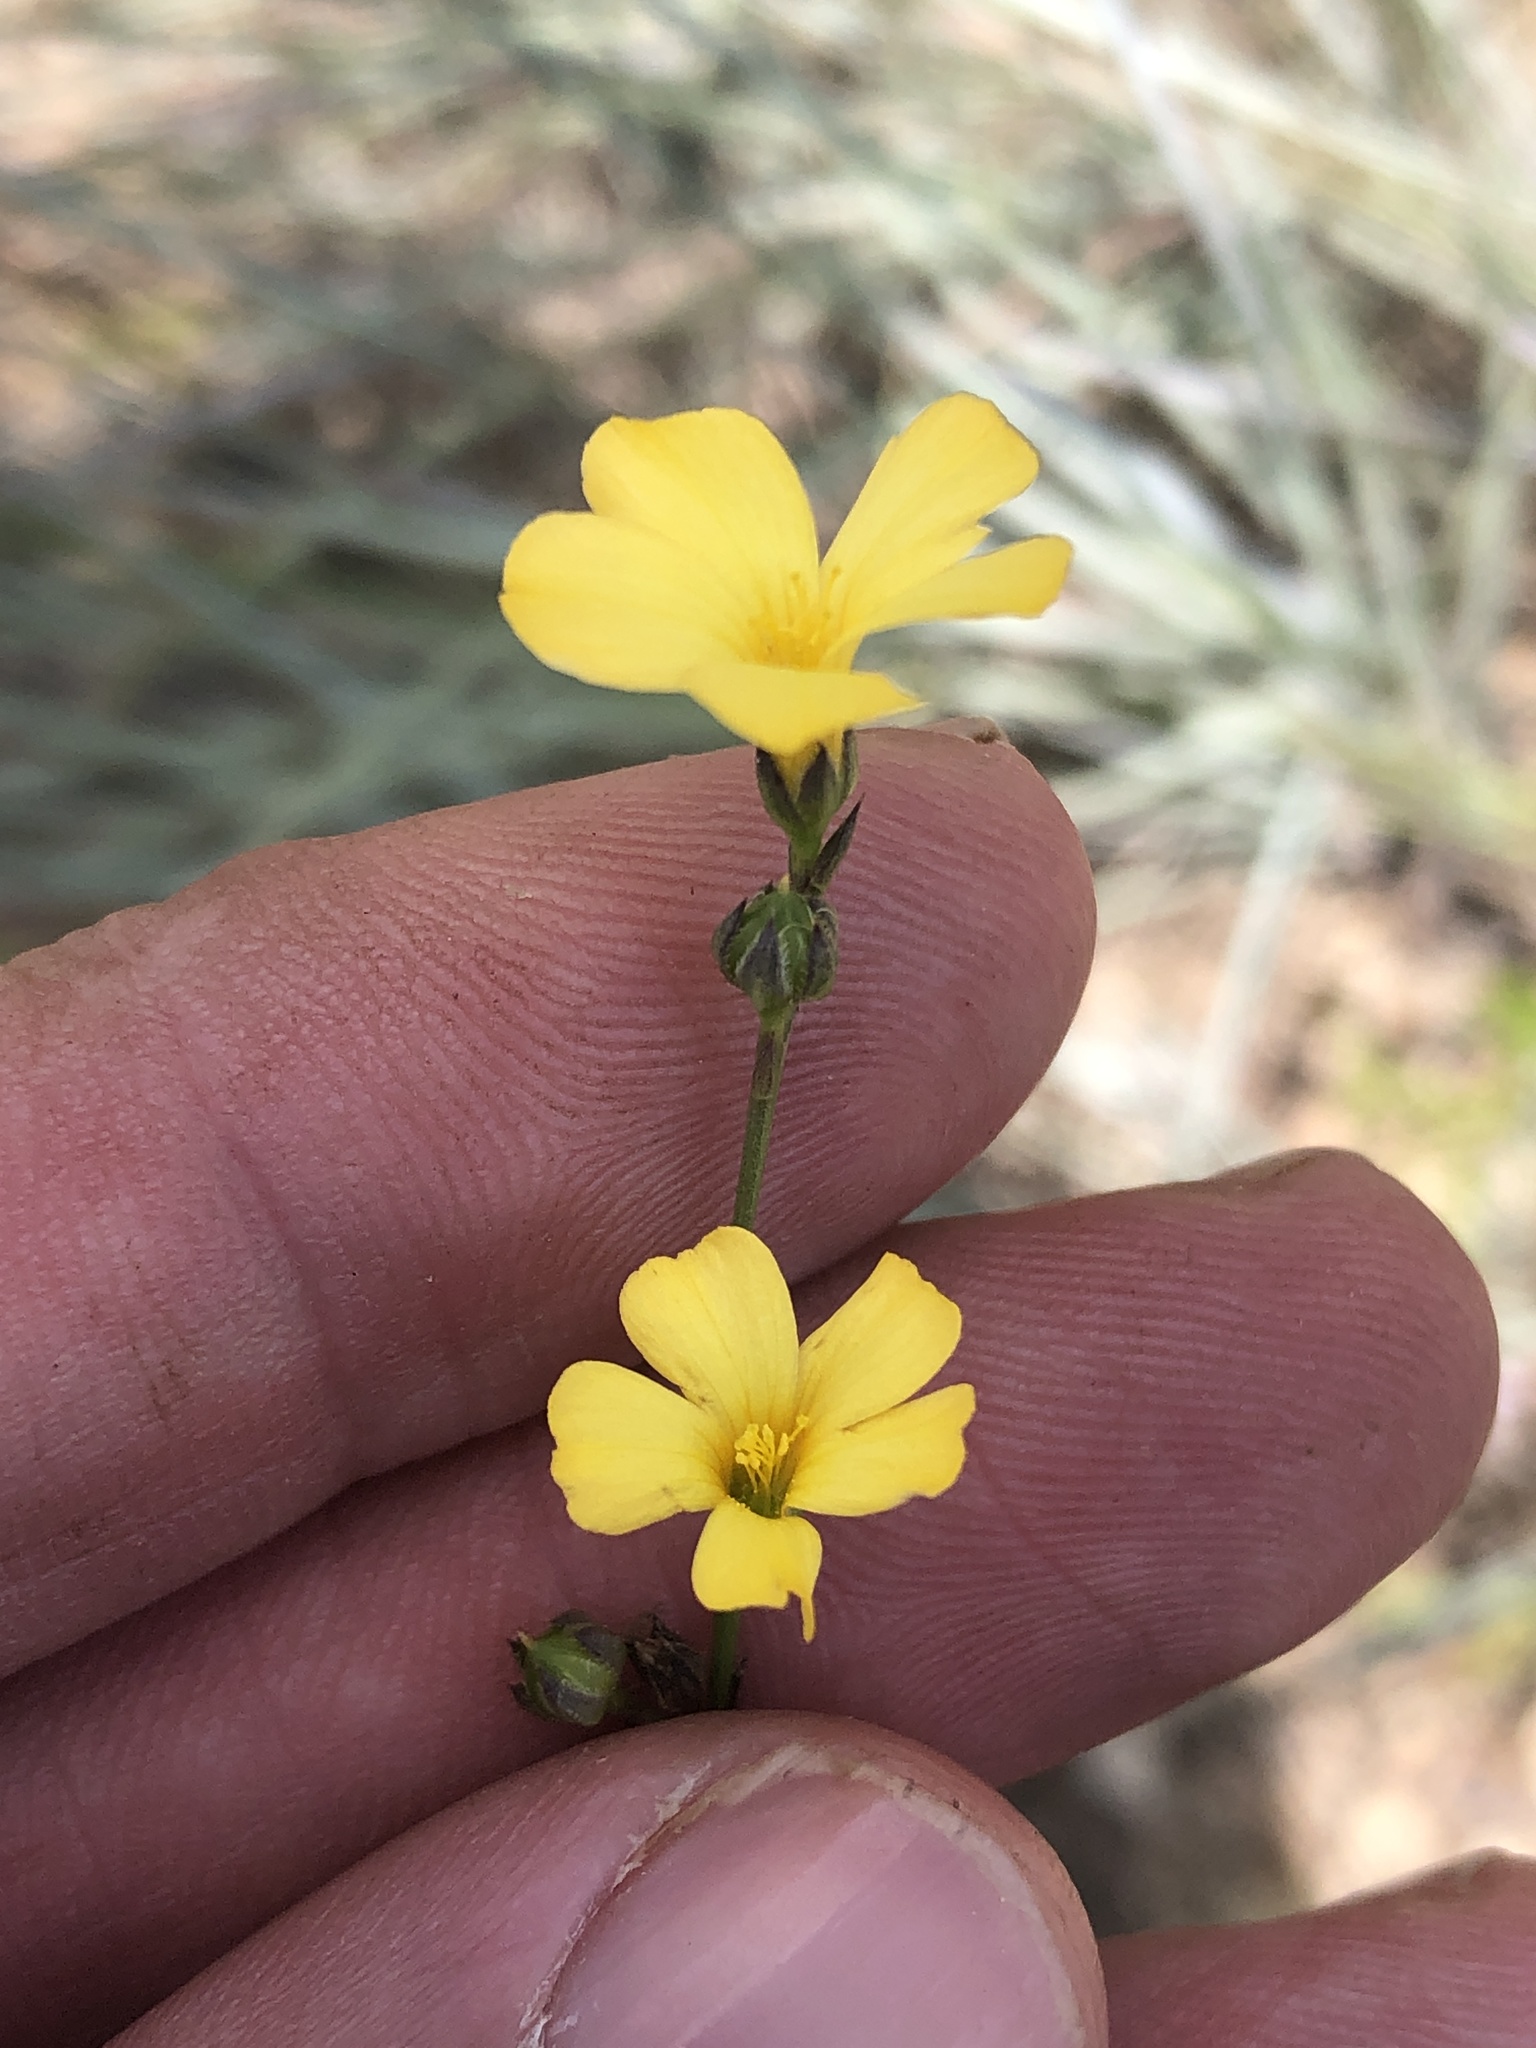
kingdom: Plantae
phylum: Tracheophyta
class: Magnoliopsida
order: Malpighiales
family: Linaceae
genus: Linum
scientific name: Linum rupestre
